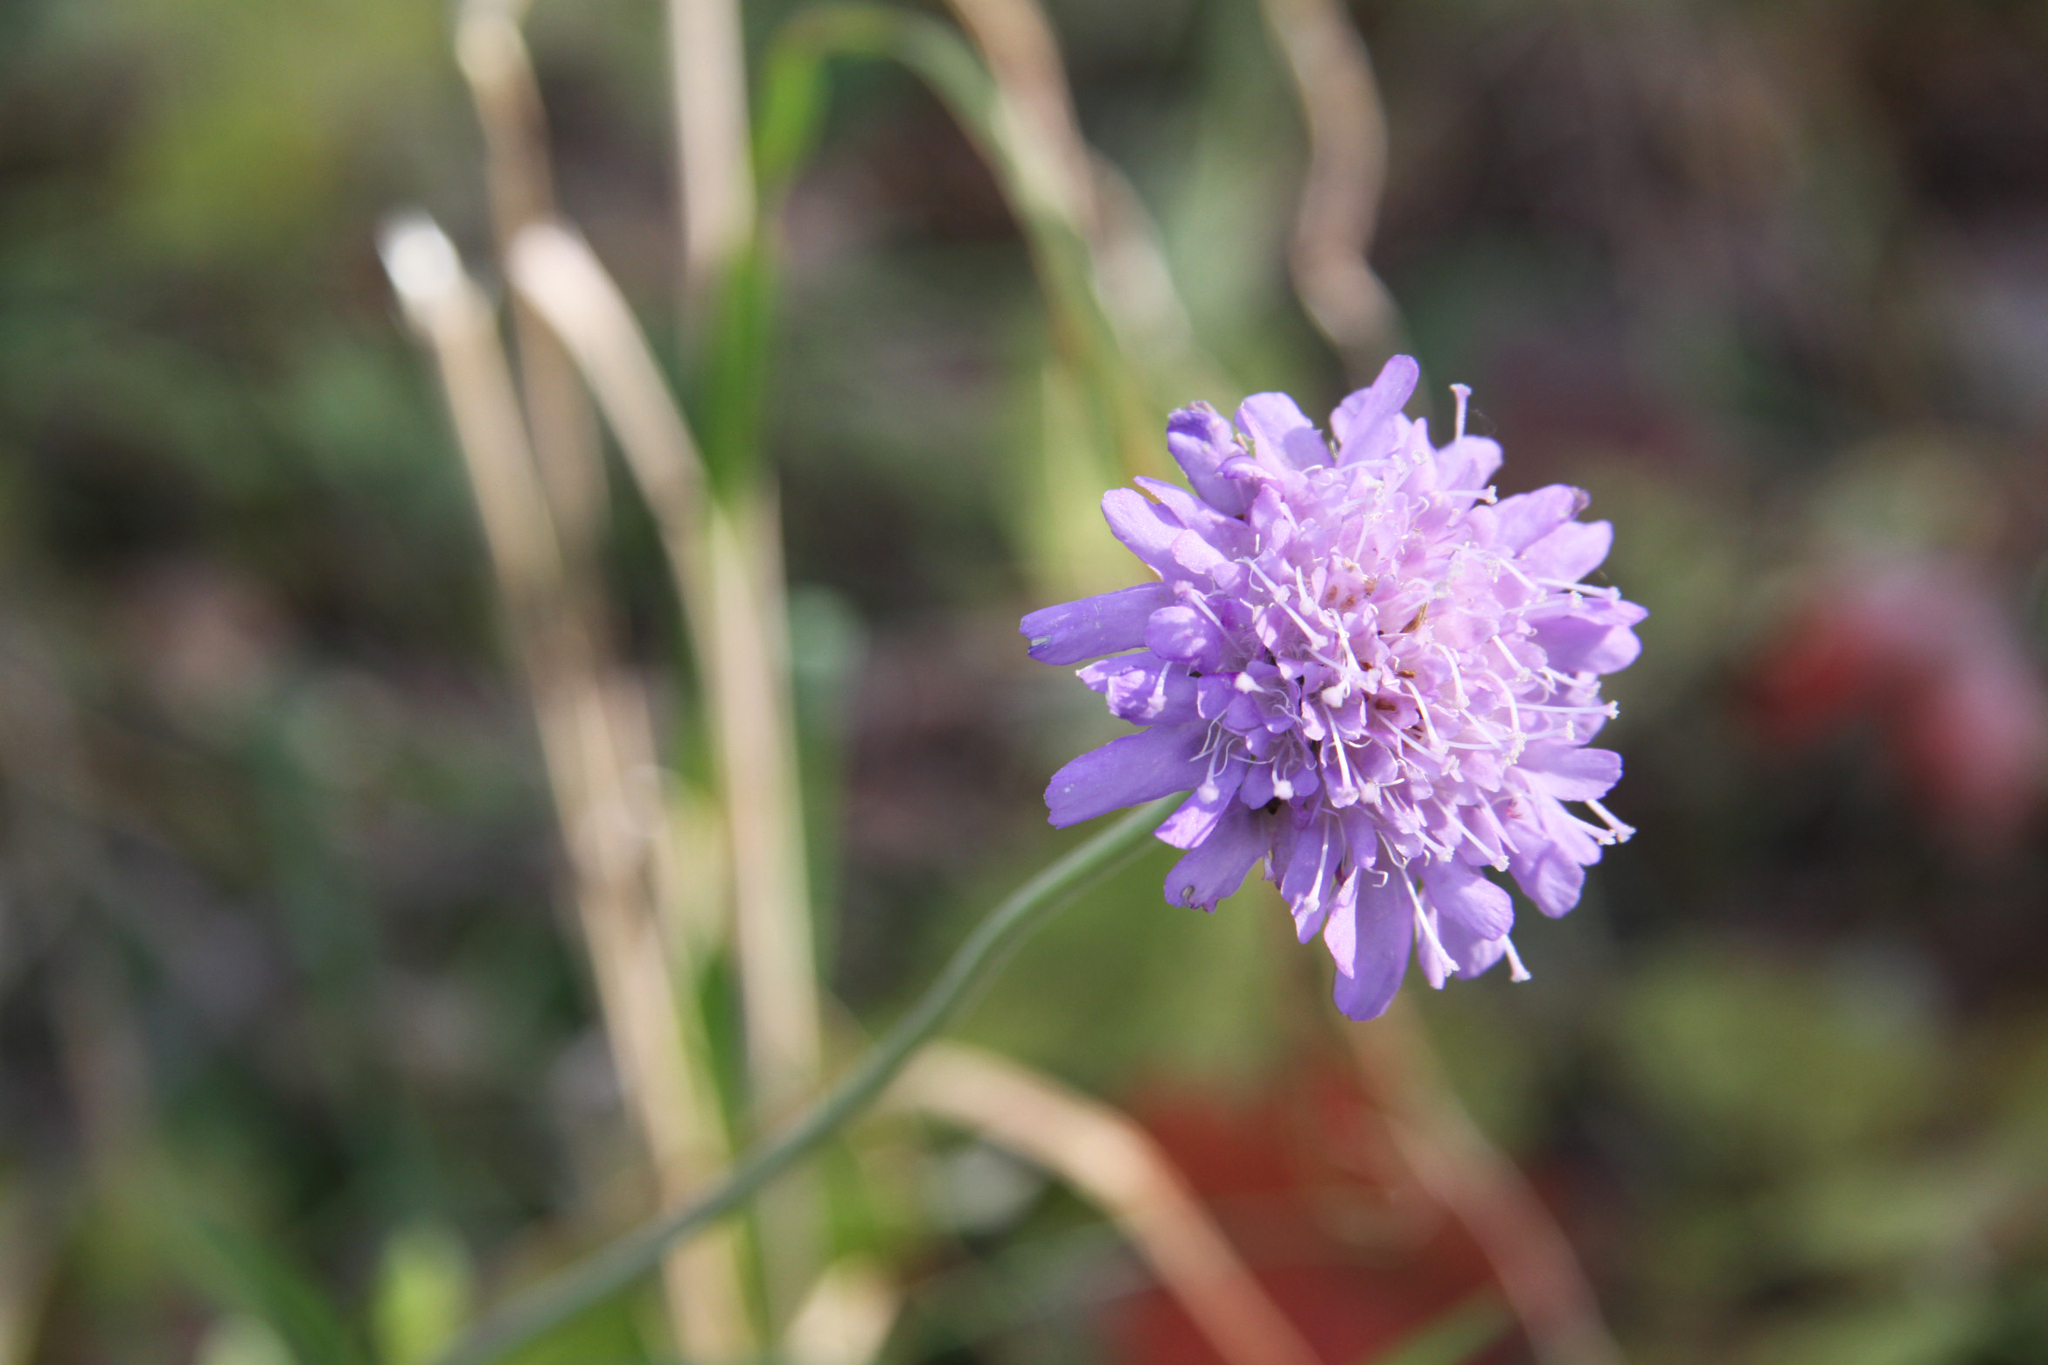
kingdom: Plantae
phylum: Tracheophyta
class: Magnoliopsida
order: Dipsacales
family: Caprifoliaceae
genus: Knautia
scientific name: Knautia arvensis
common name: Field scabiosa
